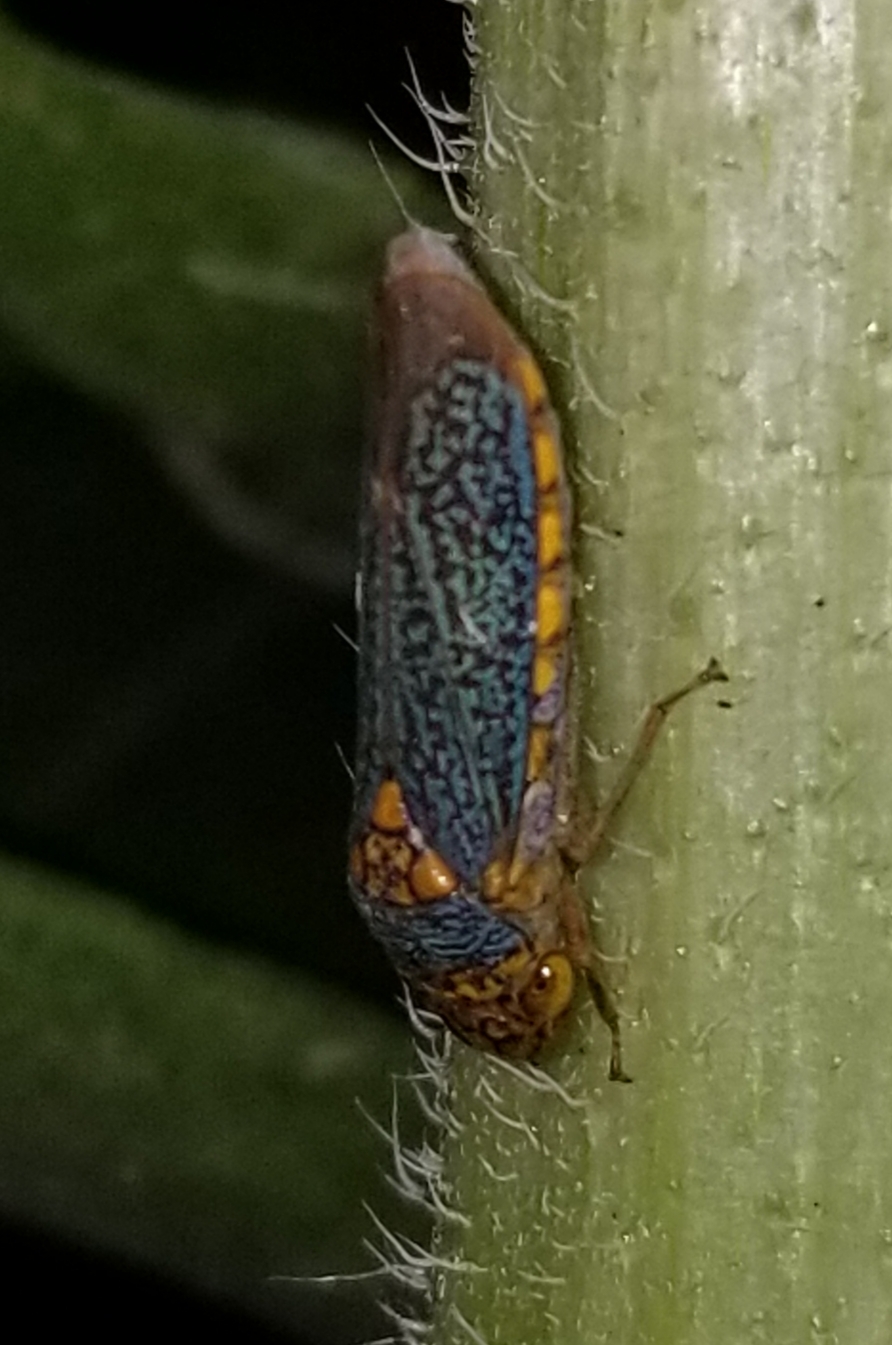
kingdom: Animalia
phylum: Arthropoda
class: Insecta
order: Hemiptera
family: Cicadellidae
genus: Oncometopia
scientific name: Oncometopia orbona
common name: Broad-headed sharpshooter
